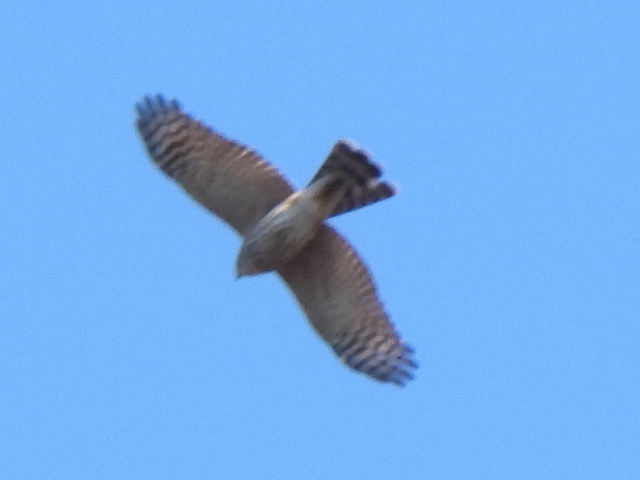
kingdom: Animalia
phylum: Chordata
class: Aves
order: Accipitriformes
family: Accipitridae
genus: Accipiter
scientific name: Accipiter striatus
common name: Sharp-shinned hawk
